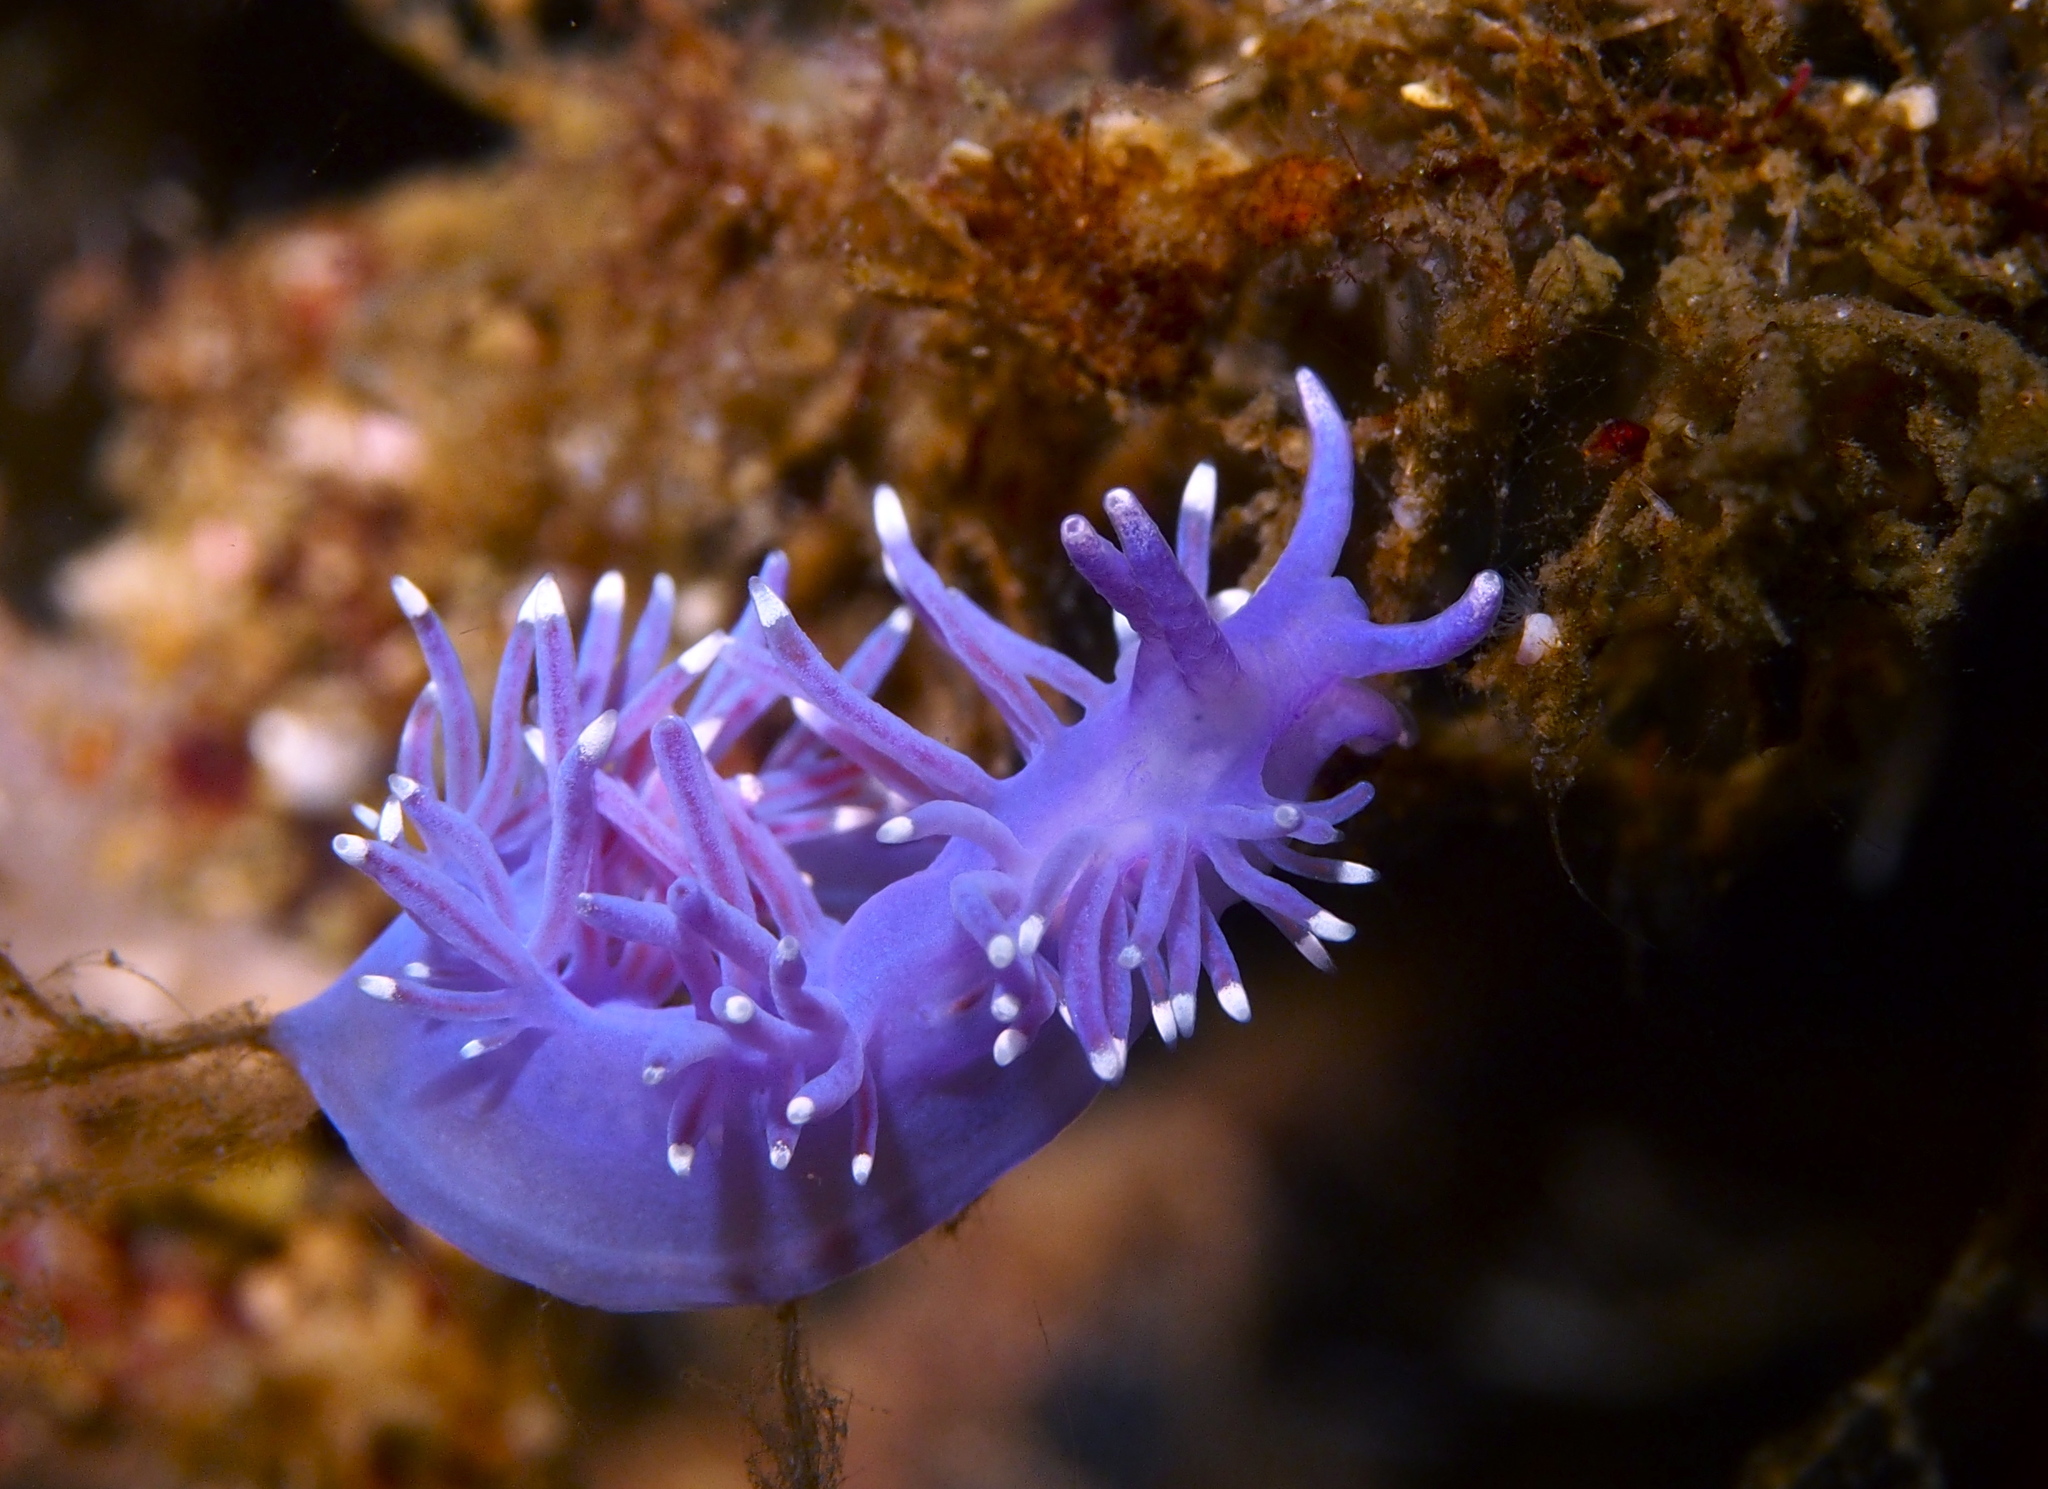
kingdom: Animalia
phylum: Mollusca
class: Gastropoda
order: Nudibranchia
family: Flabellinidae
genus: Edmundsella
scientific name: Edmundsella pedata
